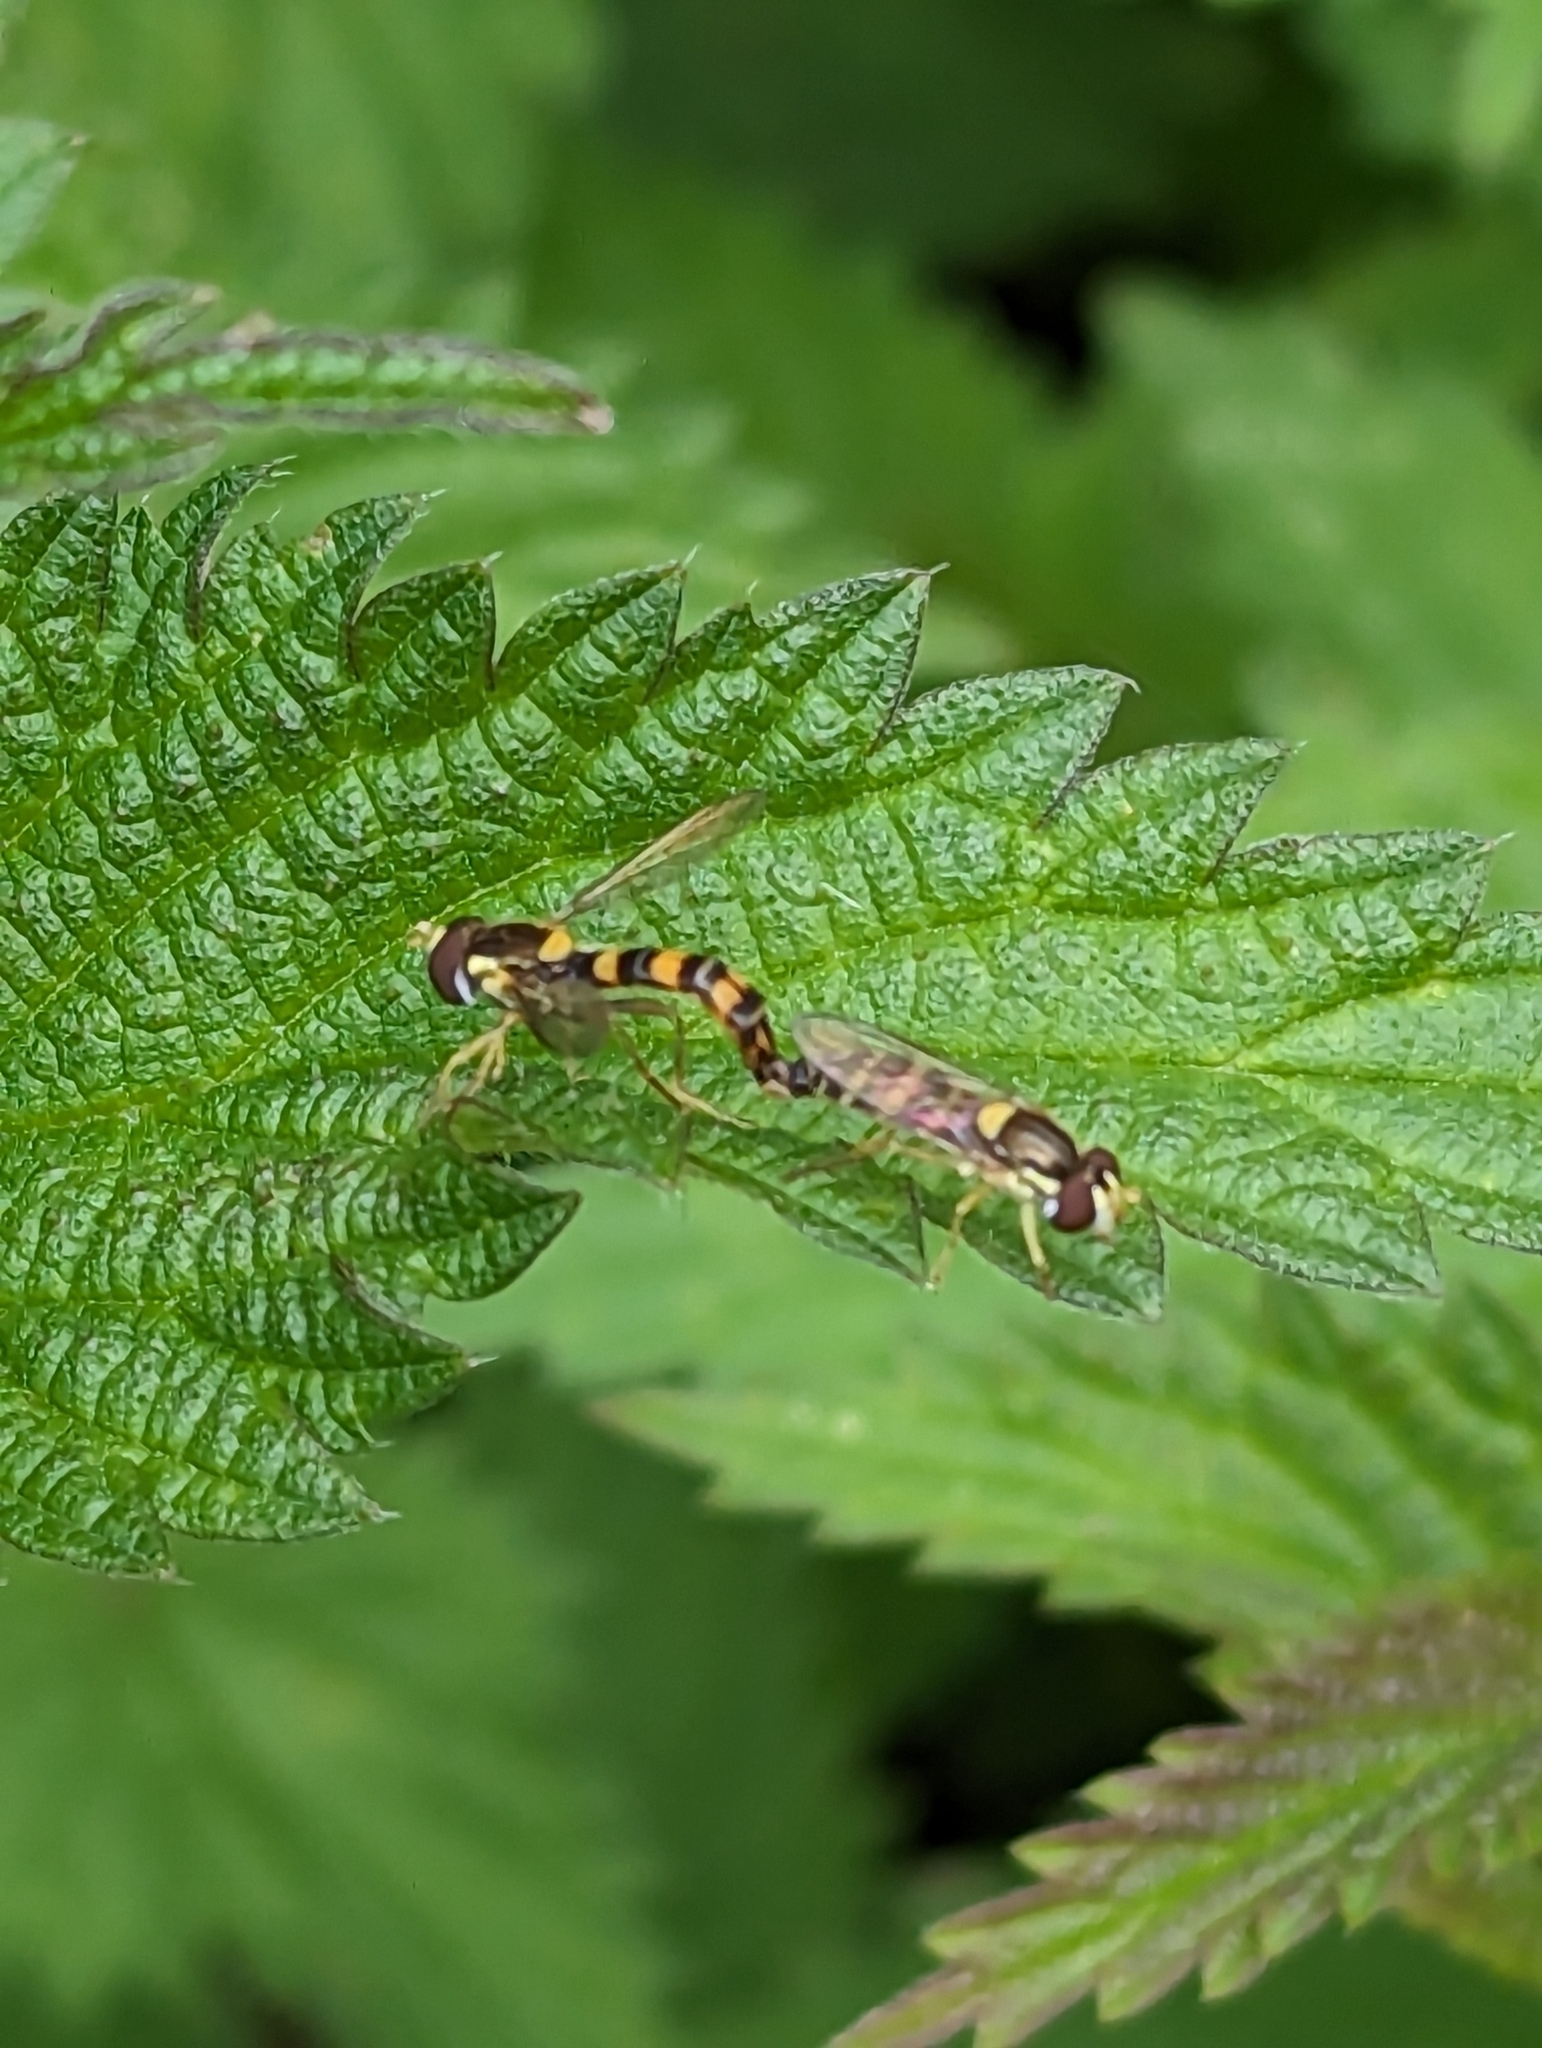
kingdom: Animalia
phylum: Arthropoda
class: Insecta
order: Diptera
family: Syrphidae
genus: Sphaerophoria
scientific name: Sphaerophoria scripta
